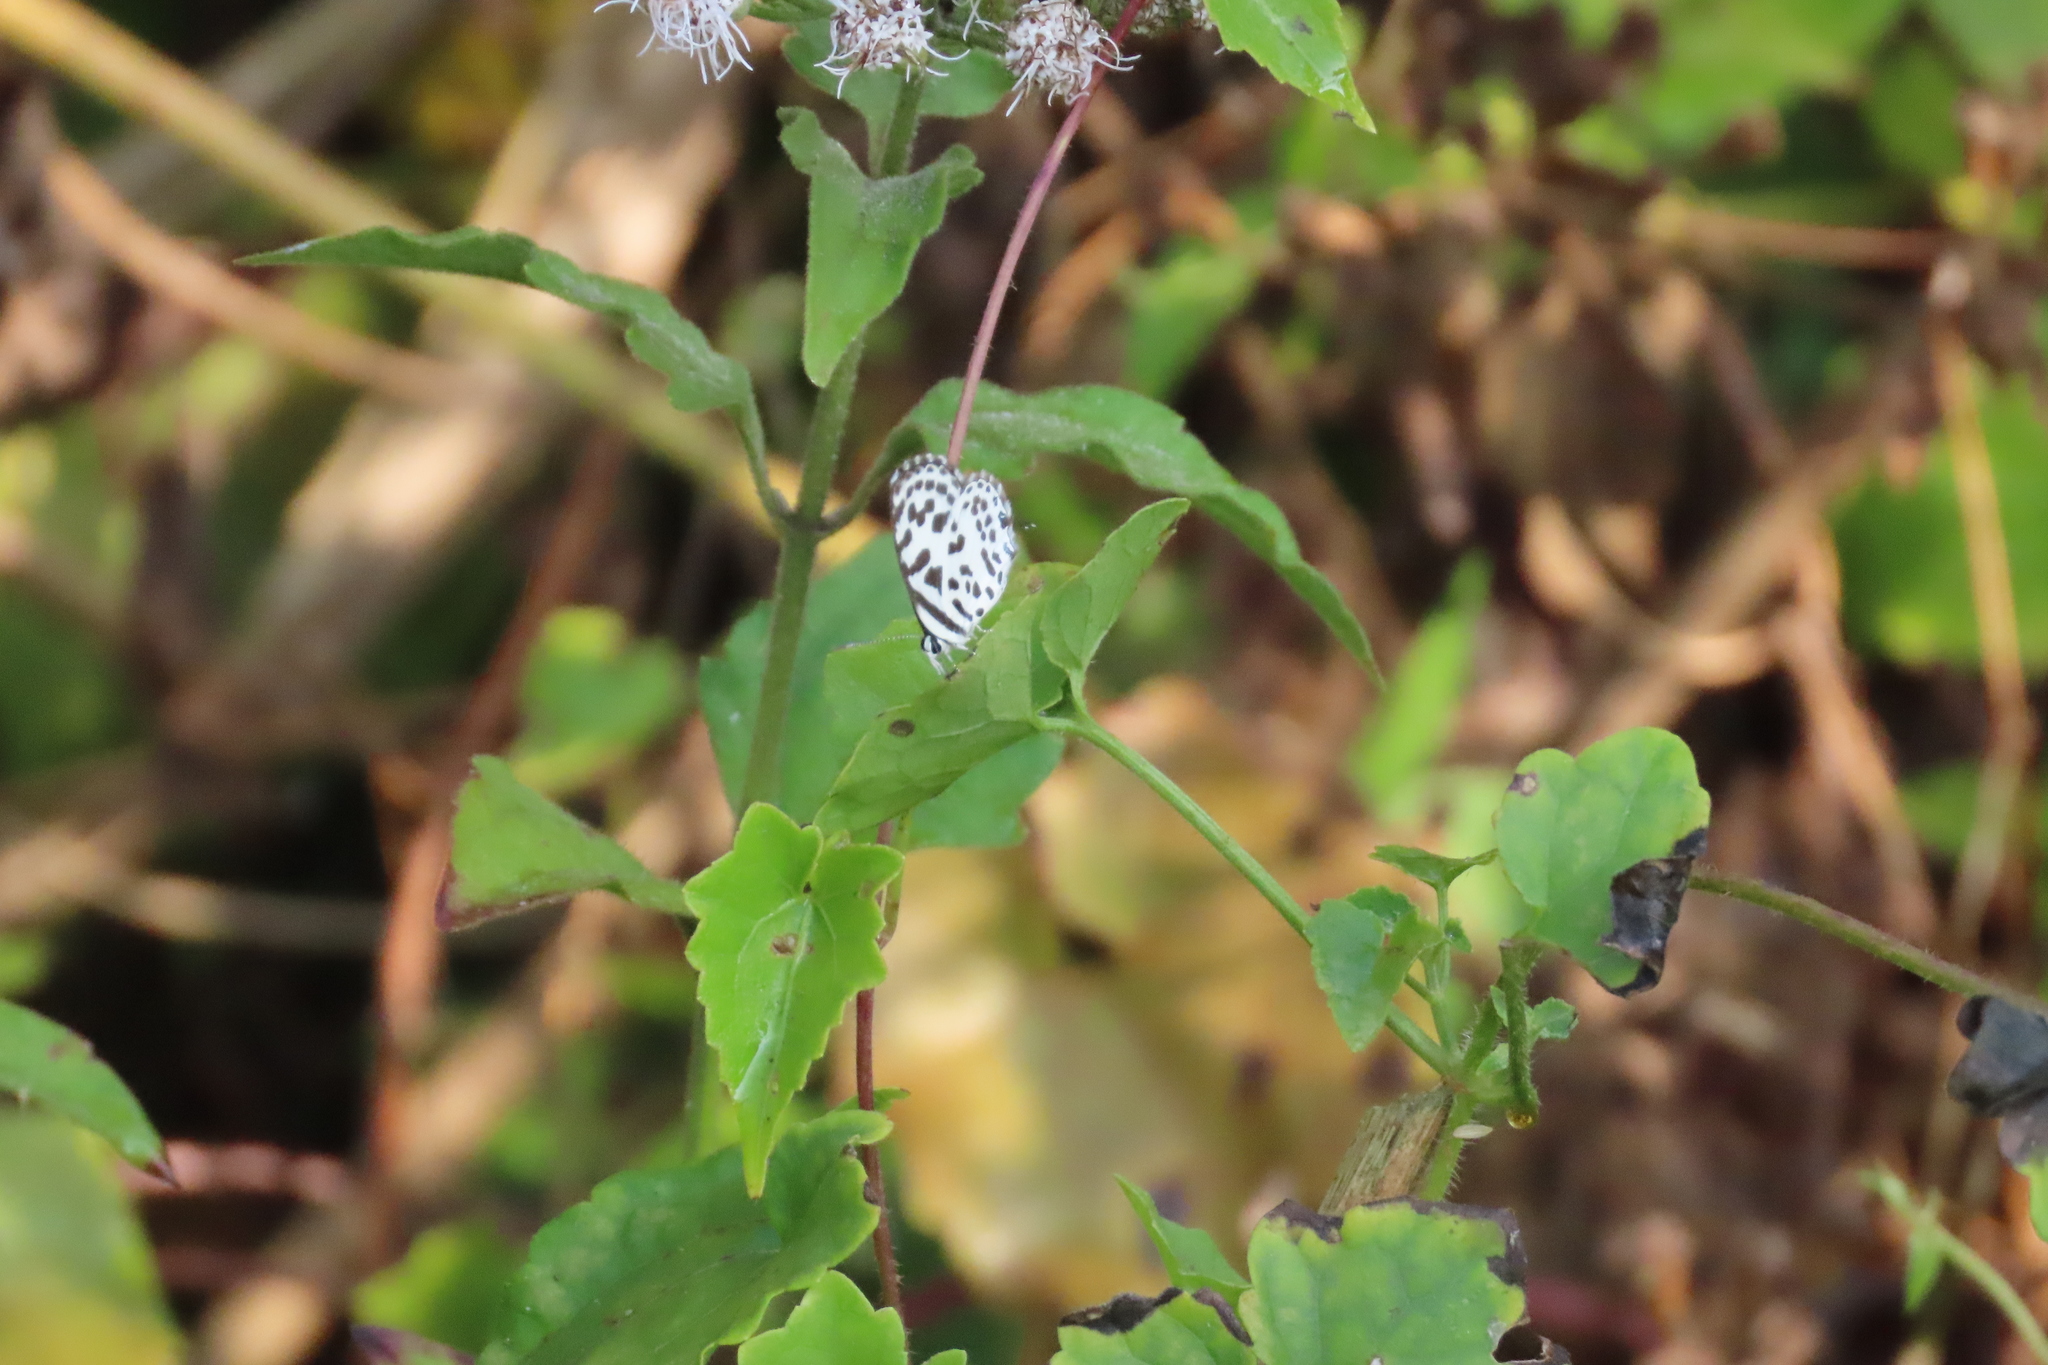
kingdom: Animalia
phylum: Arthropoda
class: Insecta
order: Lepidoptera
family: Lycaenidae
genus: Castalius
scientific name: Castalius rosimon
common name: Common pierrot
